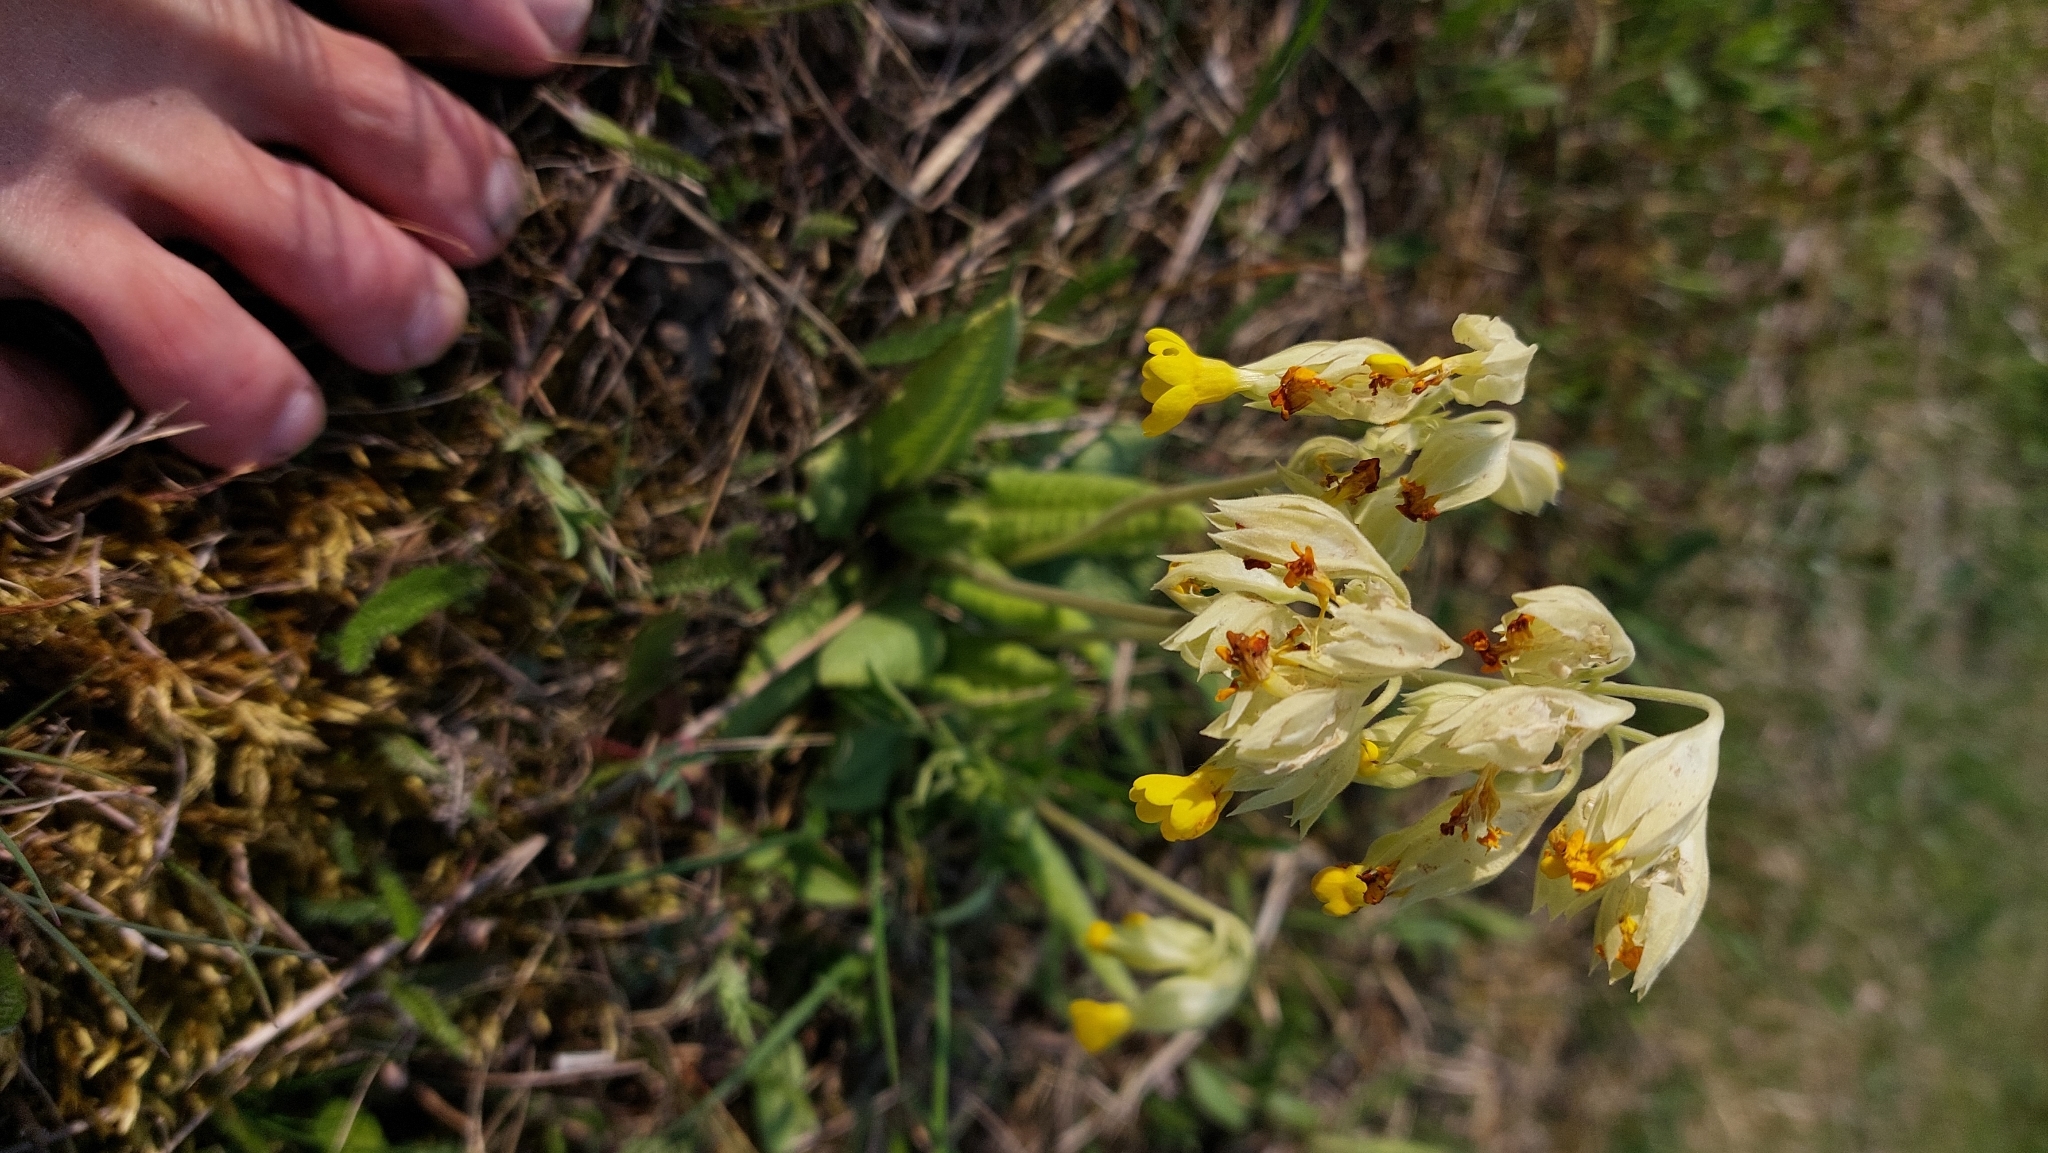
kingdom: Plantae
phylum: Tracheophyta
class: Magnoliopsida
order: Ericales
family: Primulaceae
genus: Primula
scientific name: Primula veris
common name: Cowslip
